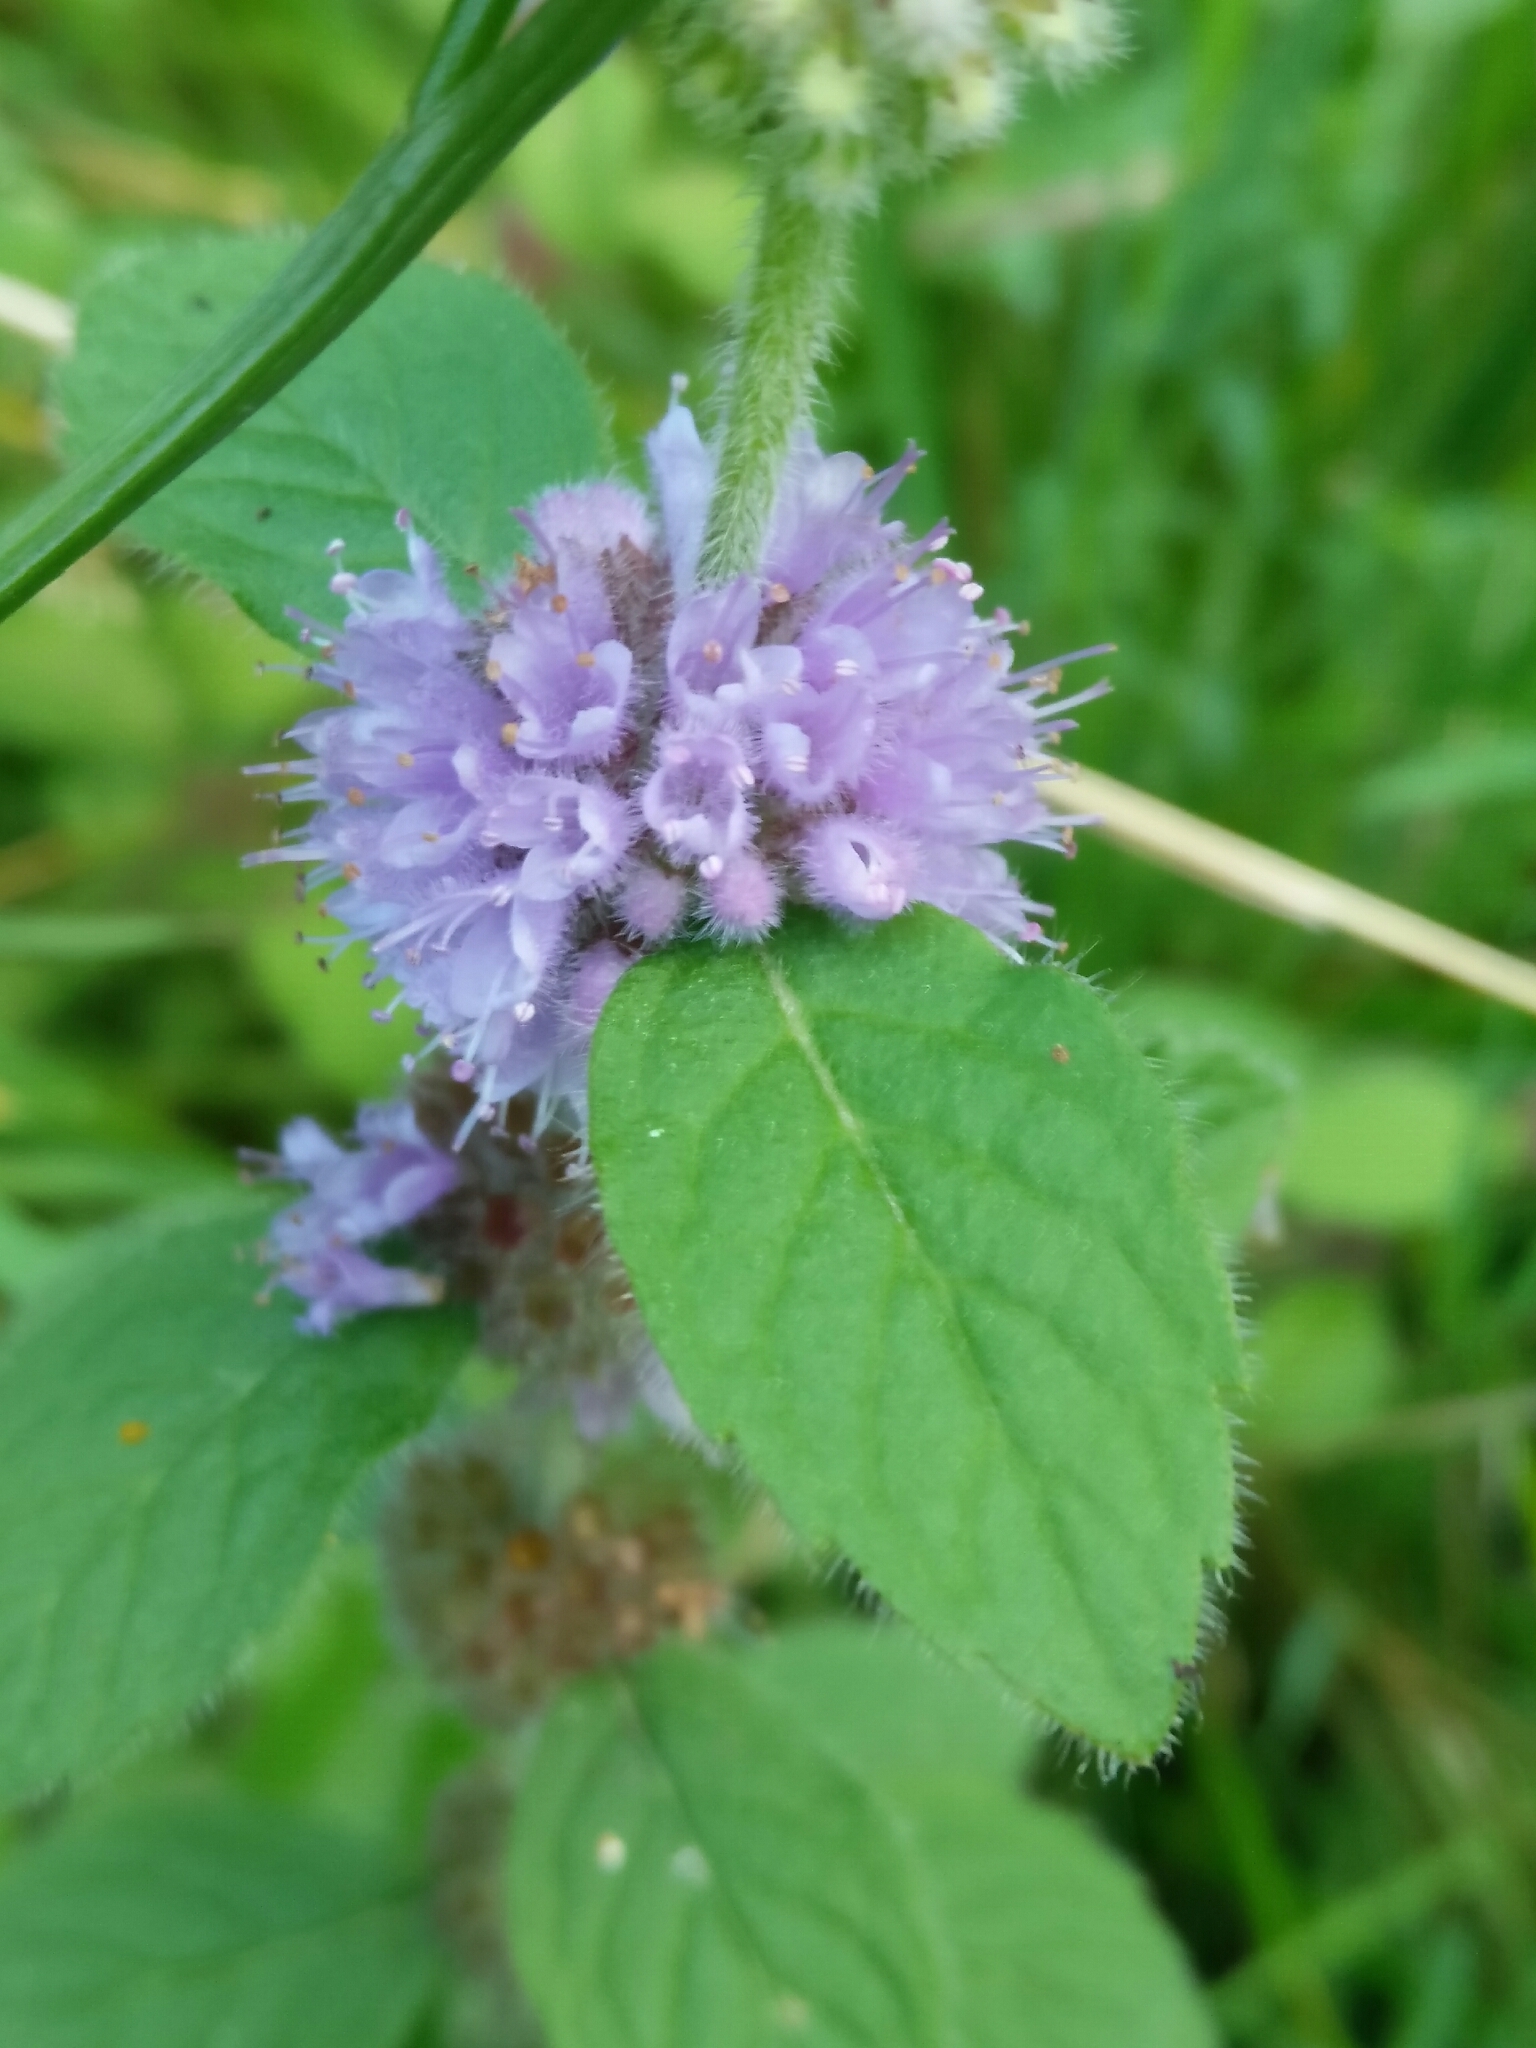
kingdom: Plantae
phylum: Tracheophyta
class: Magnoliopsida
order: Lamiales
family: Lamiaceae
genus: Mentha
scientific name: Mentha arvensis
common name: Corn mint
